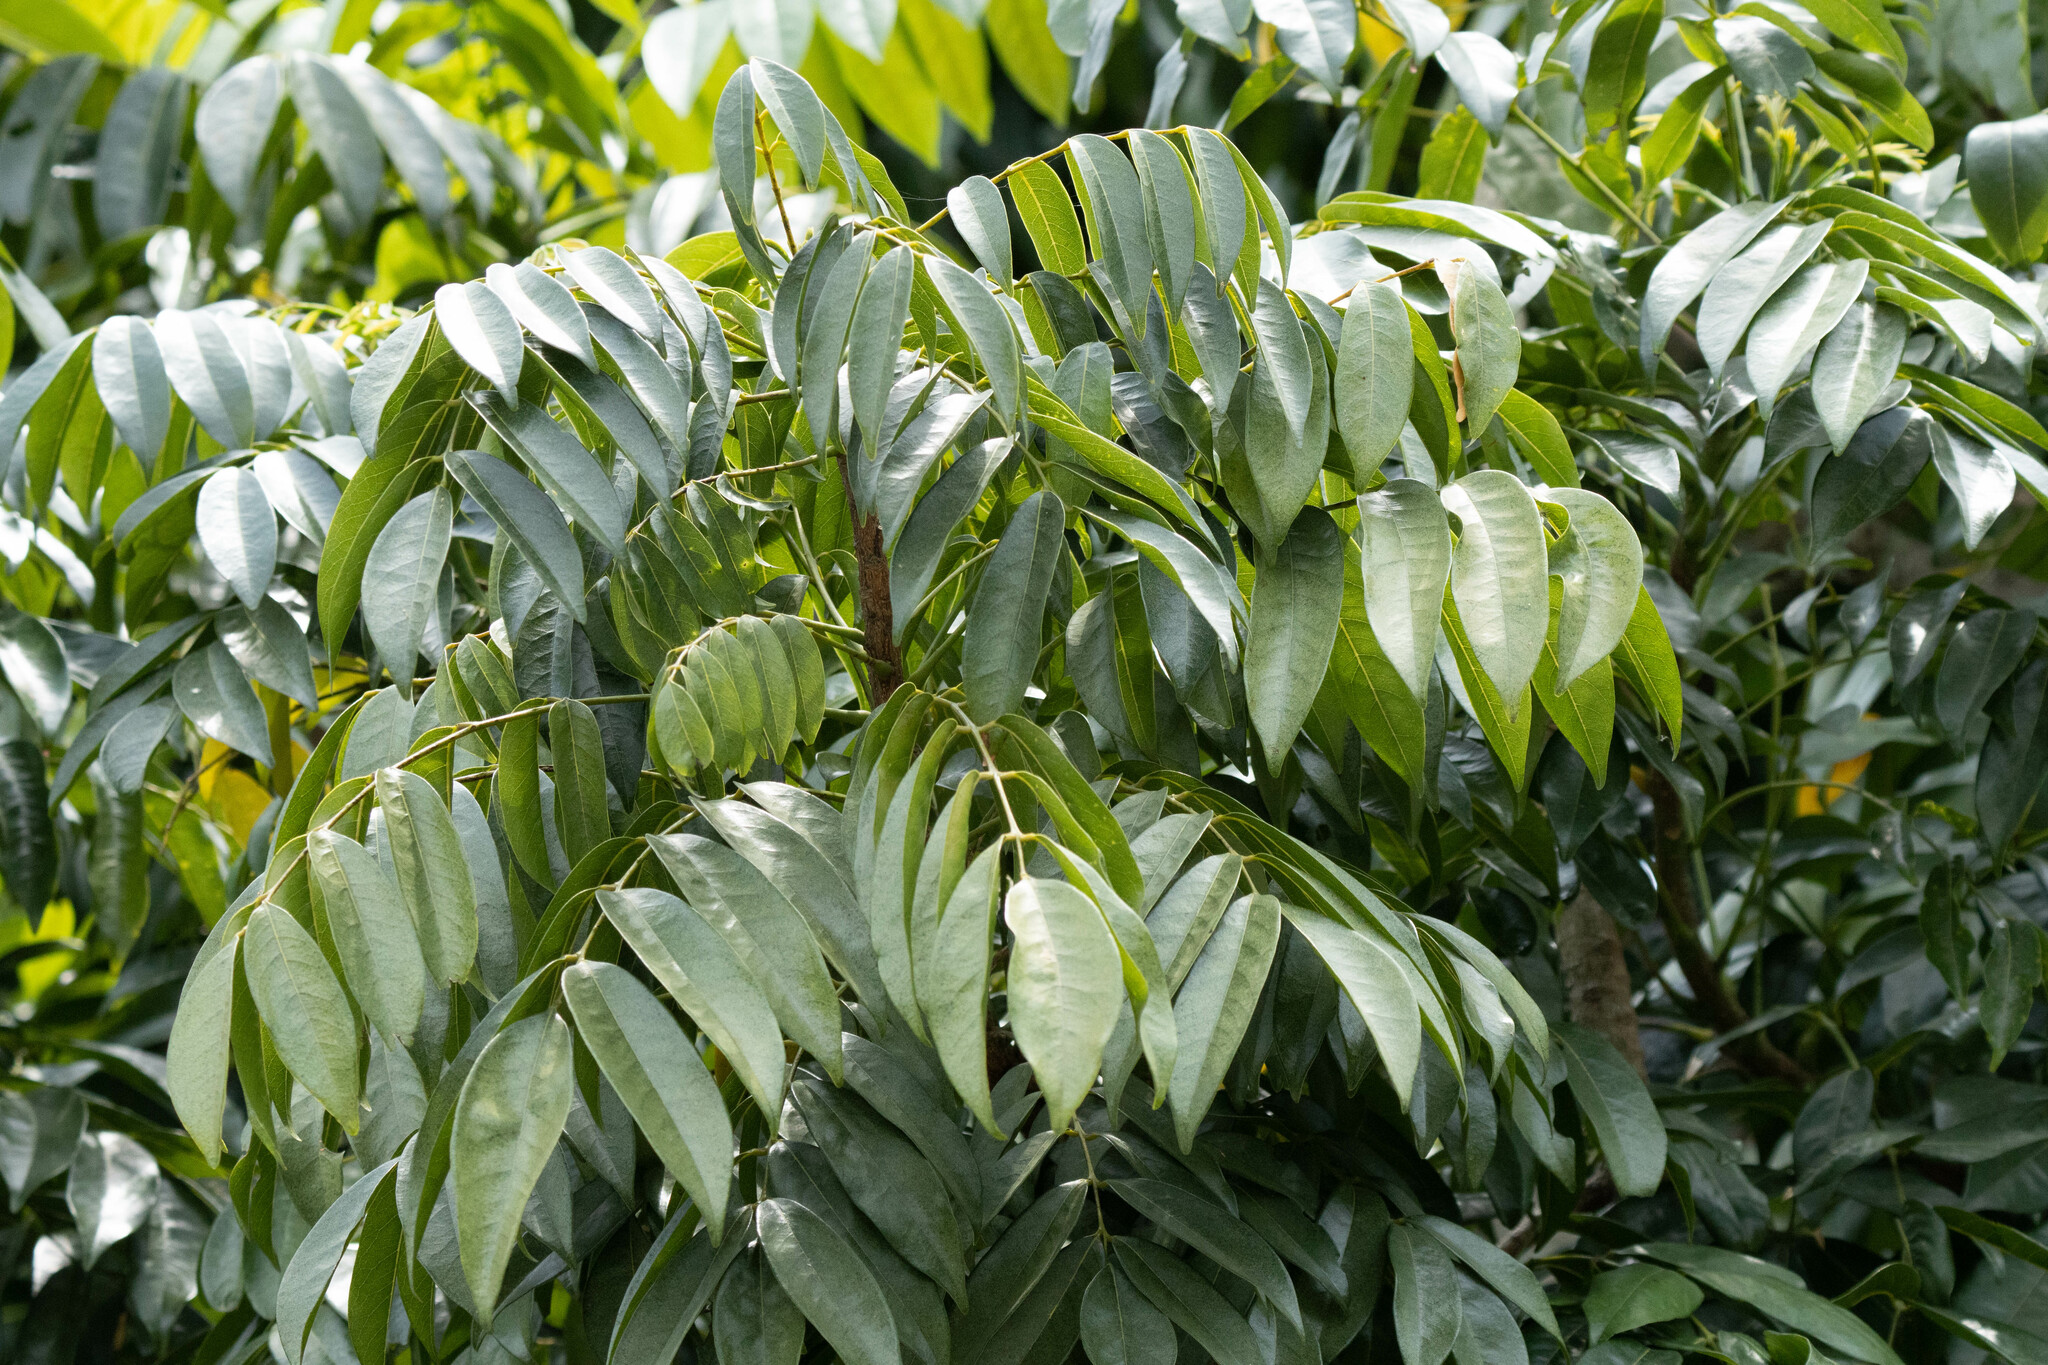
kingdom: Plantae
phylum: Tracheophyta
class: Magnoliopsida
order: Fabales
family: Fabaceae
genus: Castanospermum
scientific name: Castanospermum australe
